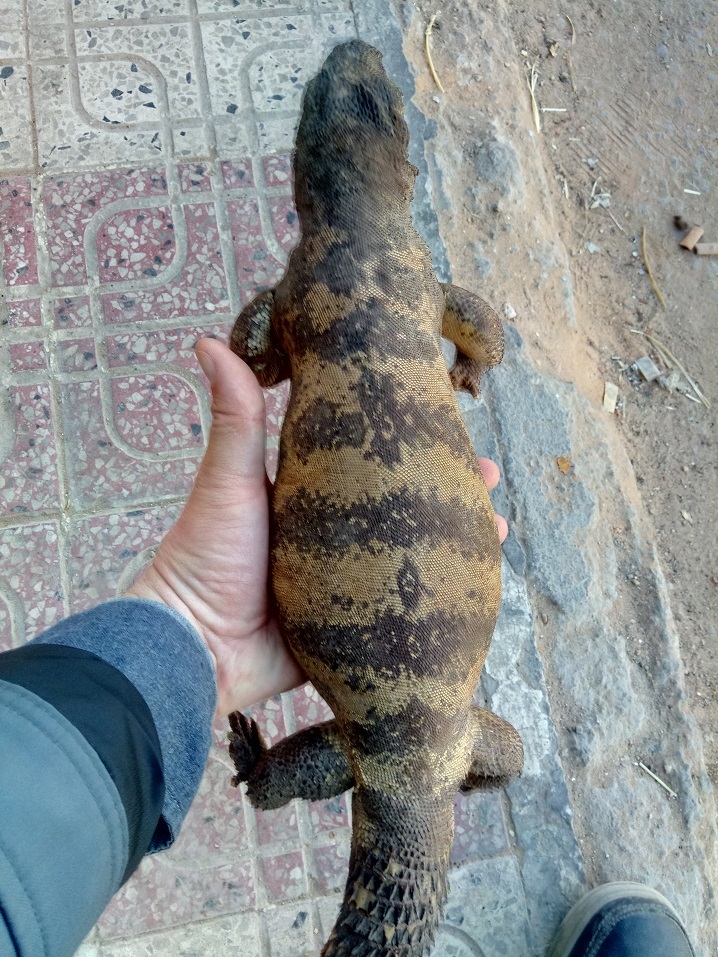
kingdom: Animalia
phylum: Chordata
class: Squamata
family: Agamidae
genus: Uromastyx
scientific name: Uromastyx dispar
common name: Sudan mastigure
